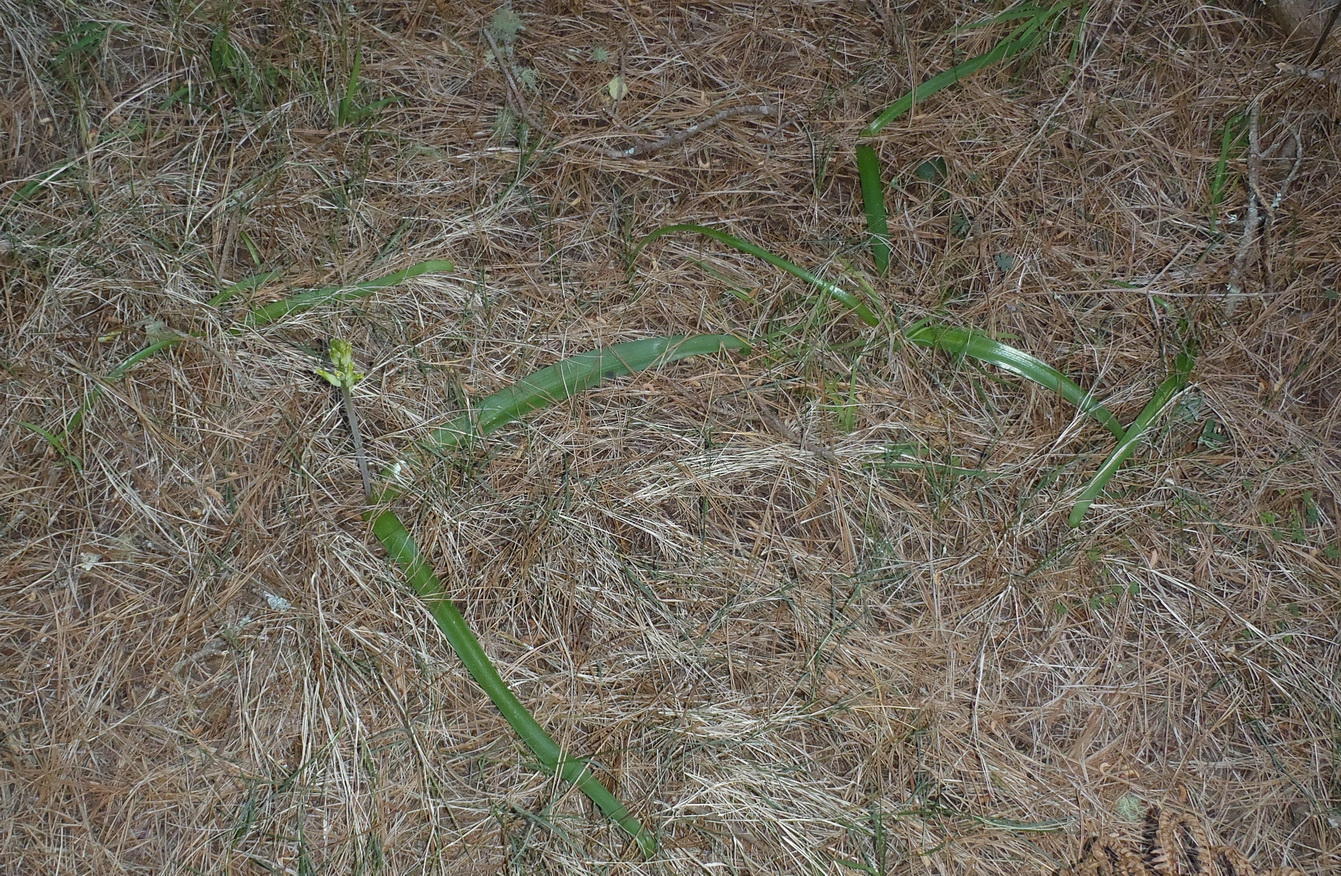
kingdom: Plantae
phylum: Tracheophyta
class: Liliopsida
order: Asparagales
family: Asparagaceae
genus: Lachenalia
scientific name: Lachenalia algoensis
